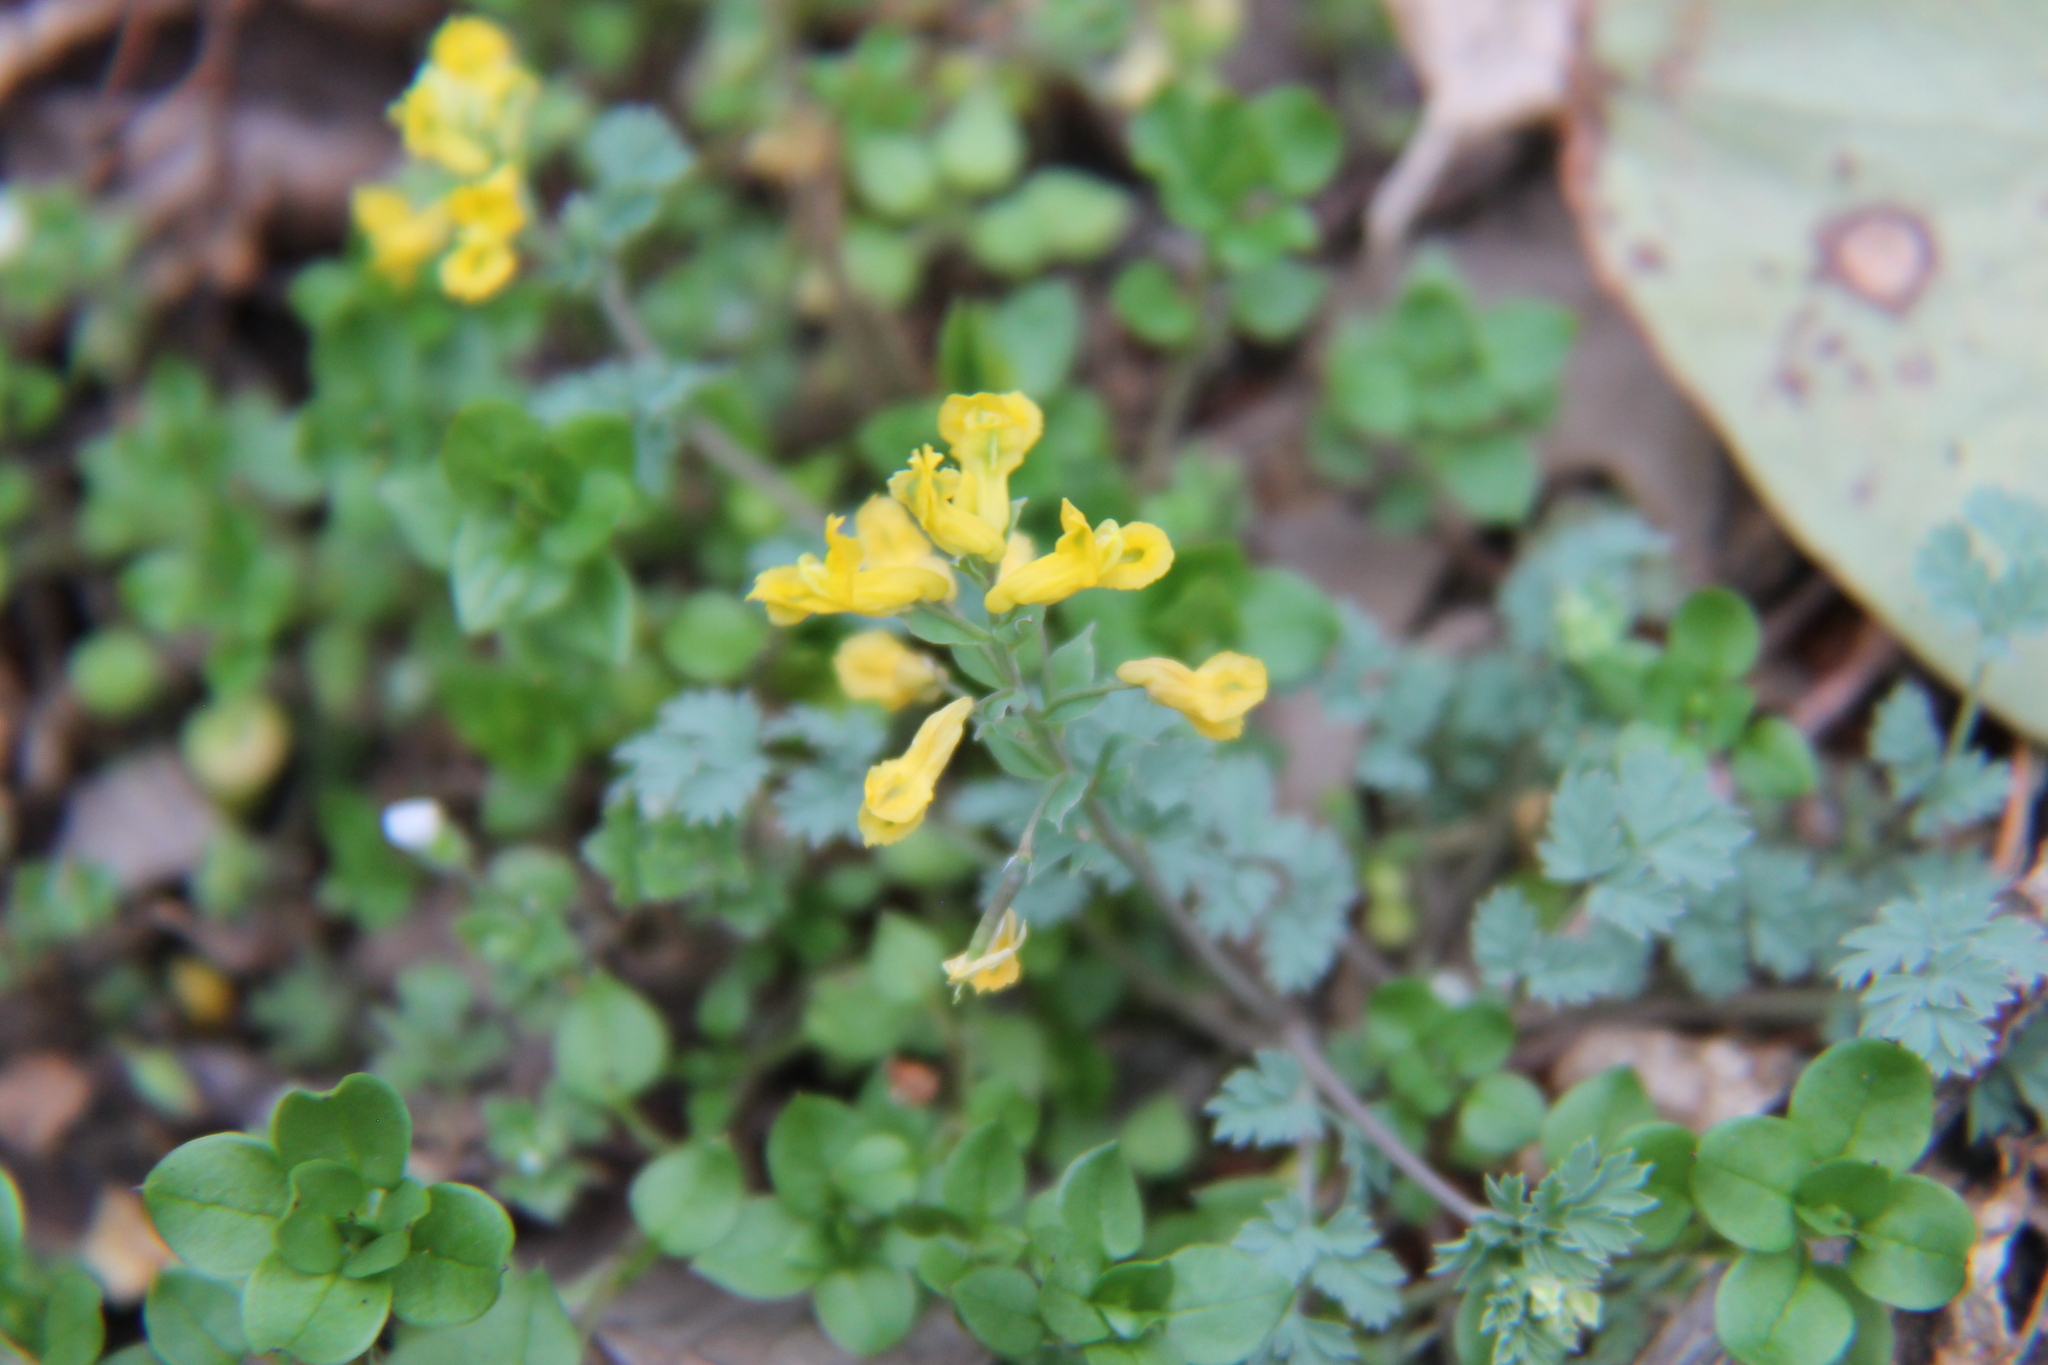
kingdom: Plantae
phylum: Tracheophyta
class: Magnoliopsida
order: Ranunculales
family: Papaveraceae
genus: Corydalis
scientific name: Corydalis flavula
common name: Yellow corydalis
